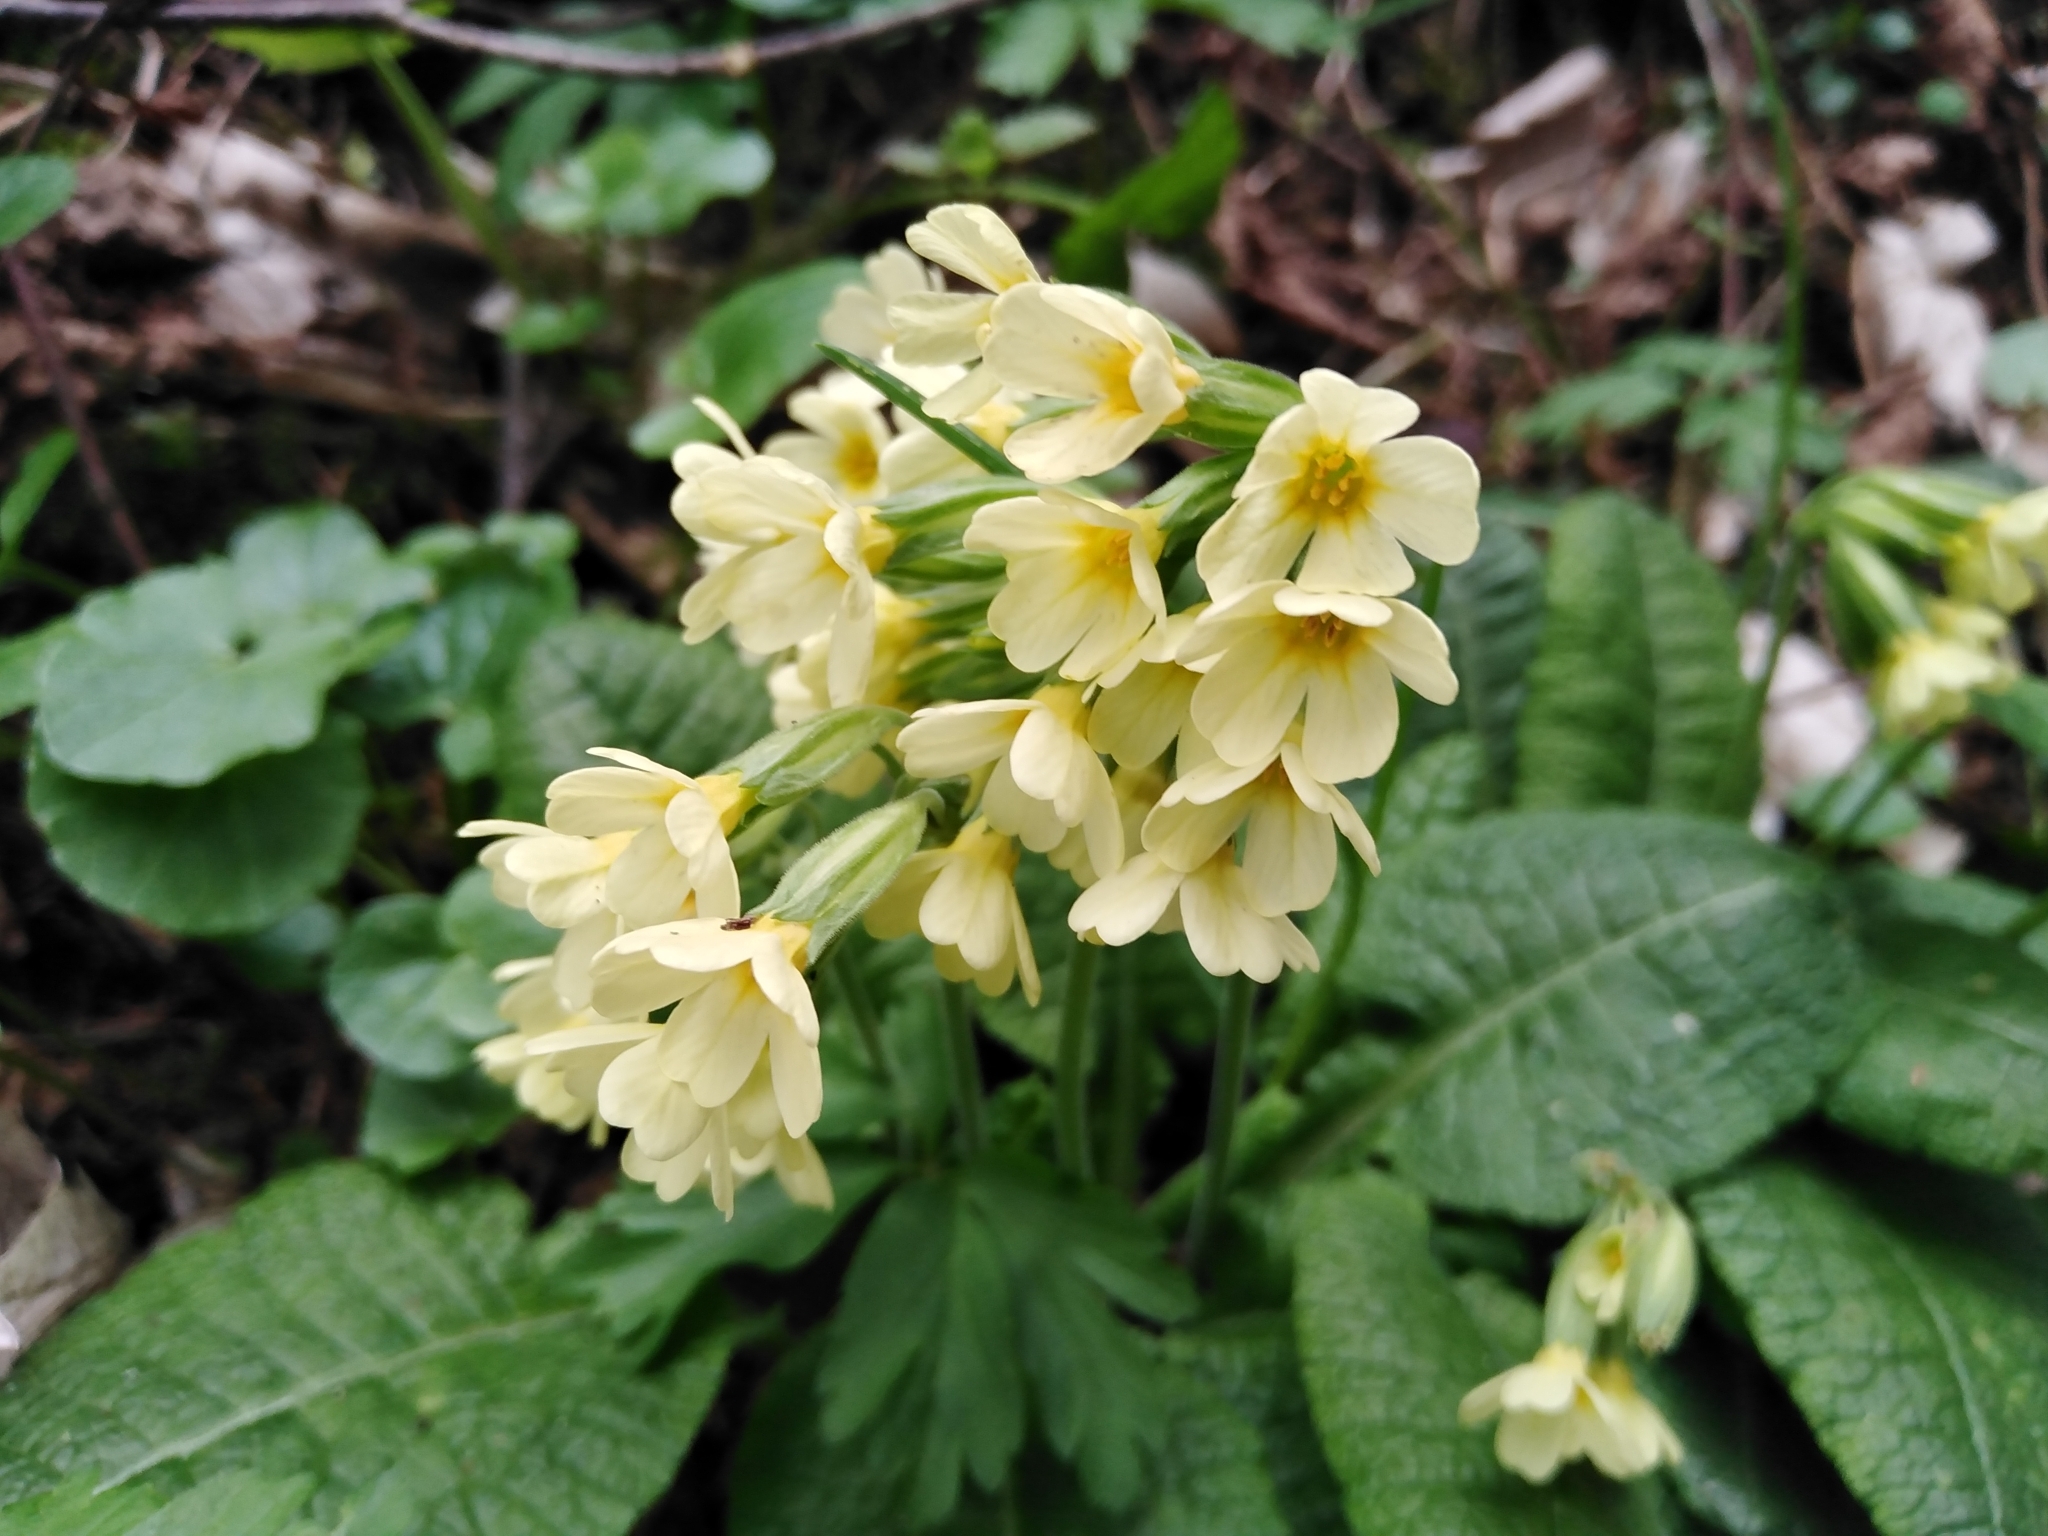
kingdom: Plantae
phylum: Tracheophyta
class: Magnoliopsida
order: Ericales
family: Primulaceae
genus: Primula
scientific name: Primula elatior
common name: Oxlip
